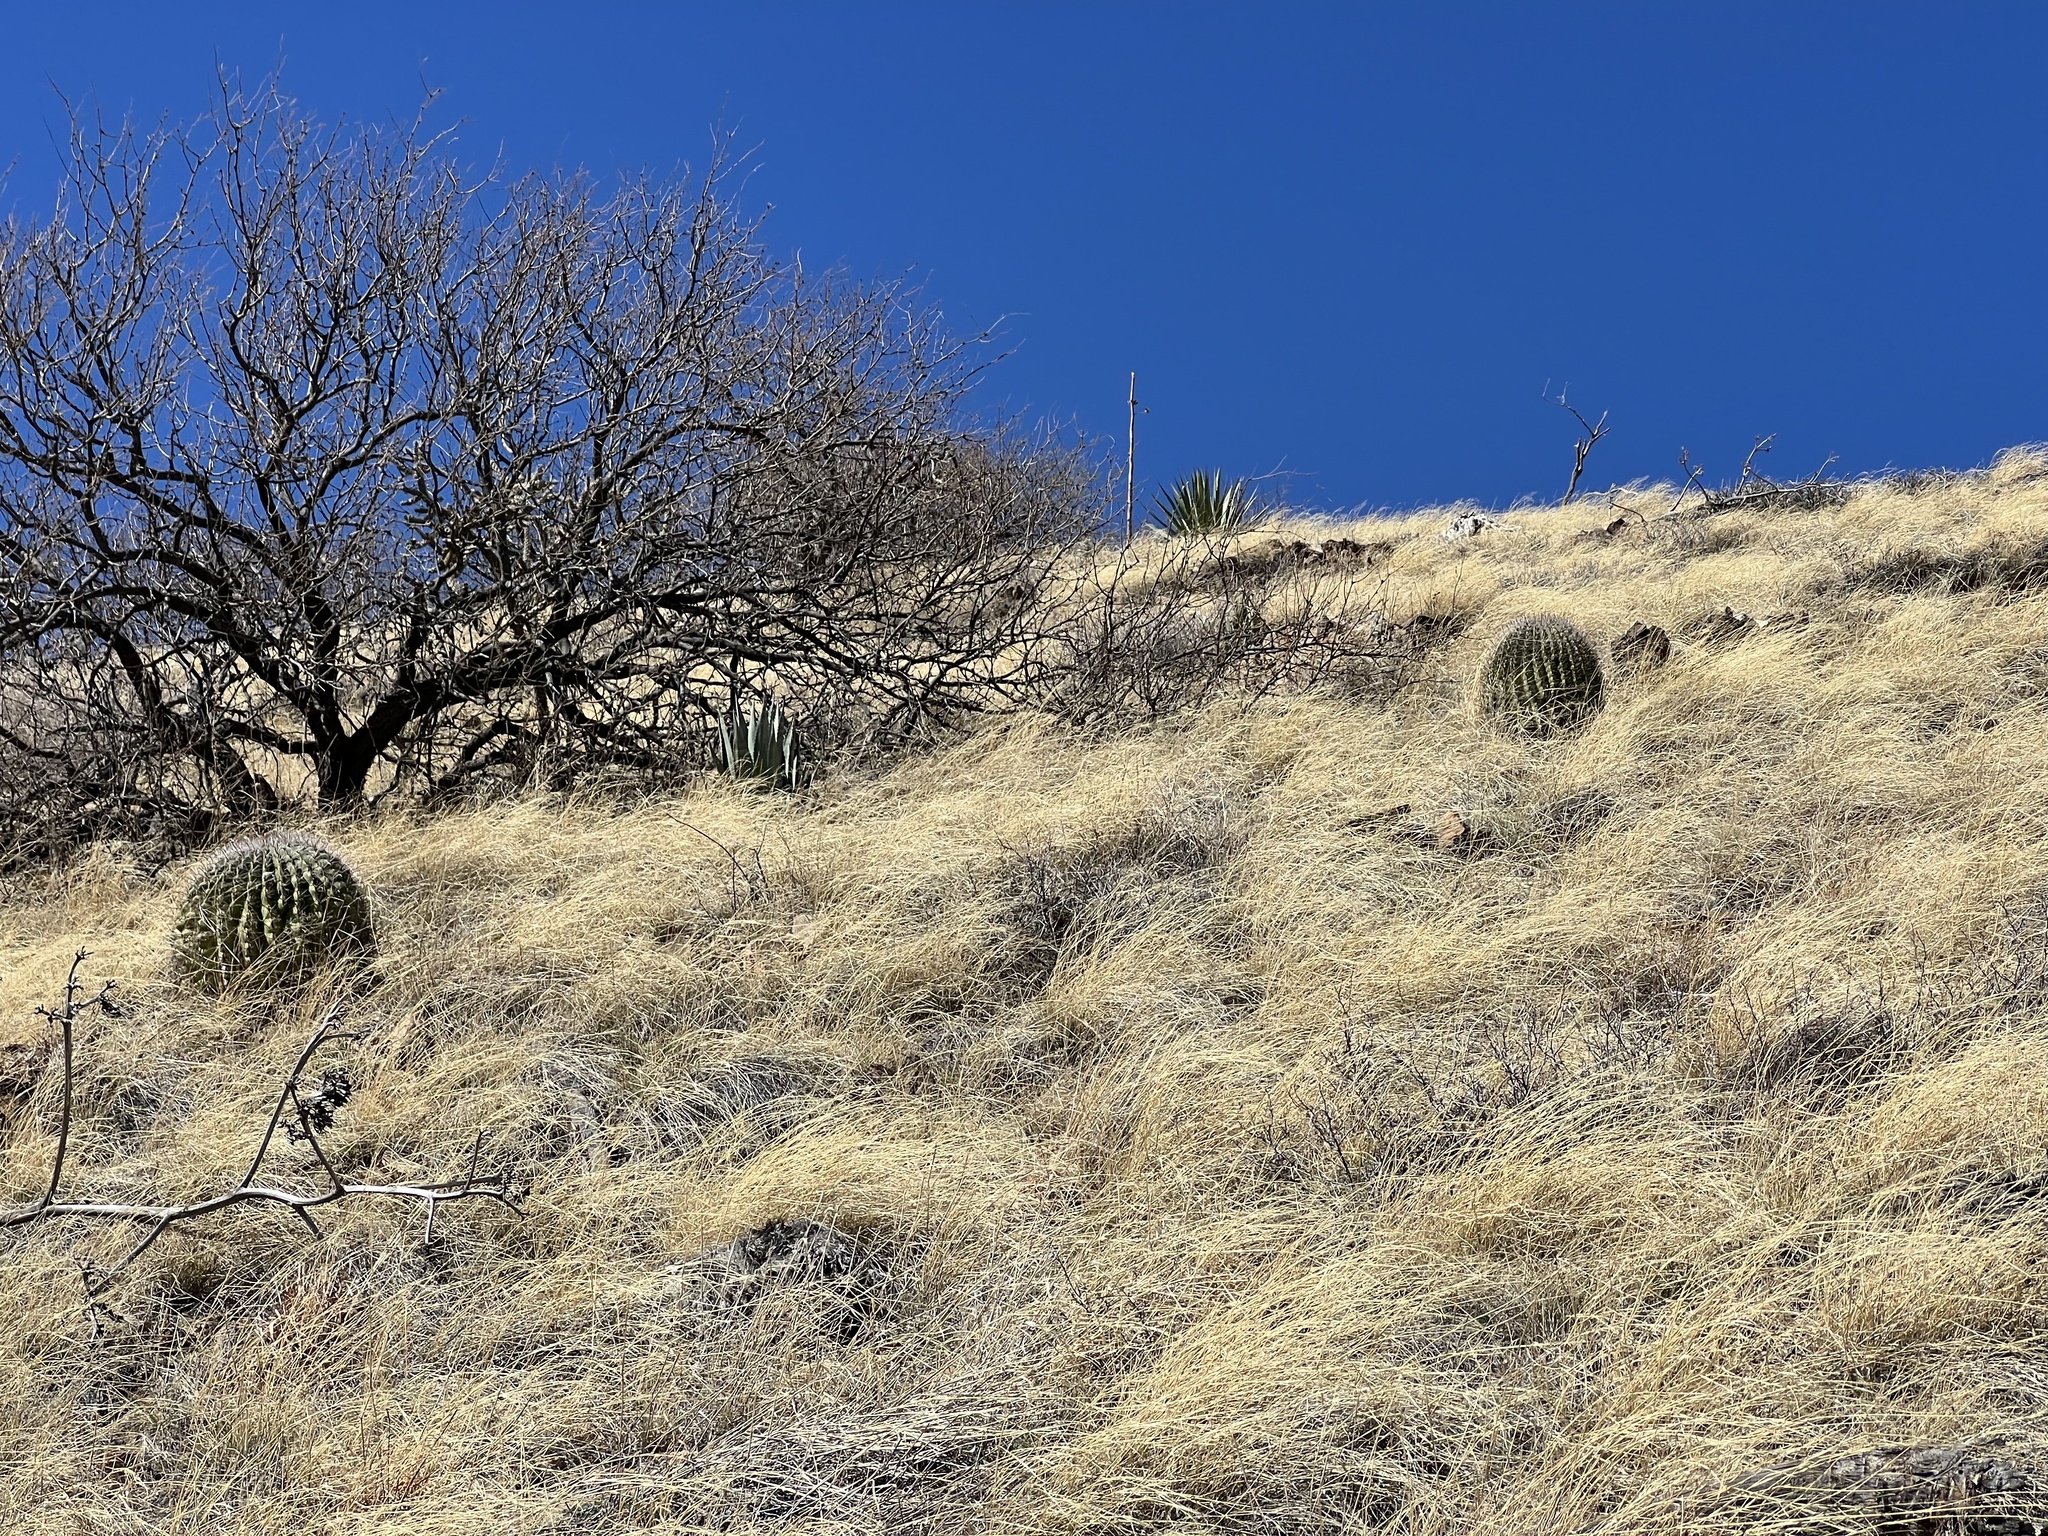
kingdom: Plantae
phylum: Tracheophyta
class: Magnoliopsida
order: Caryophyllales
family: Cactaceae
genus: Ferocactus
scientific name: Ferocactus wislizeni
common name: Candy barrel cactus
